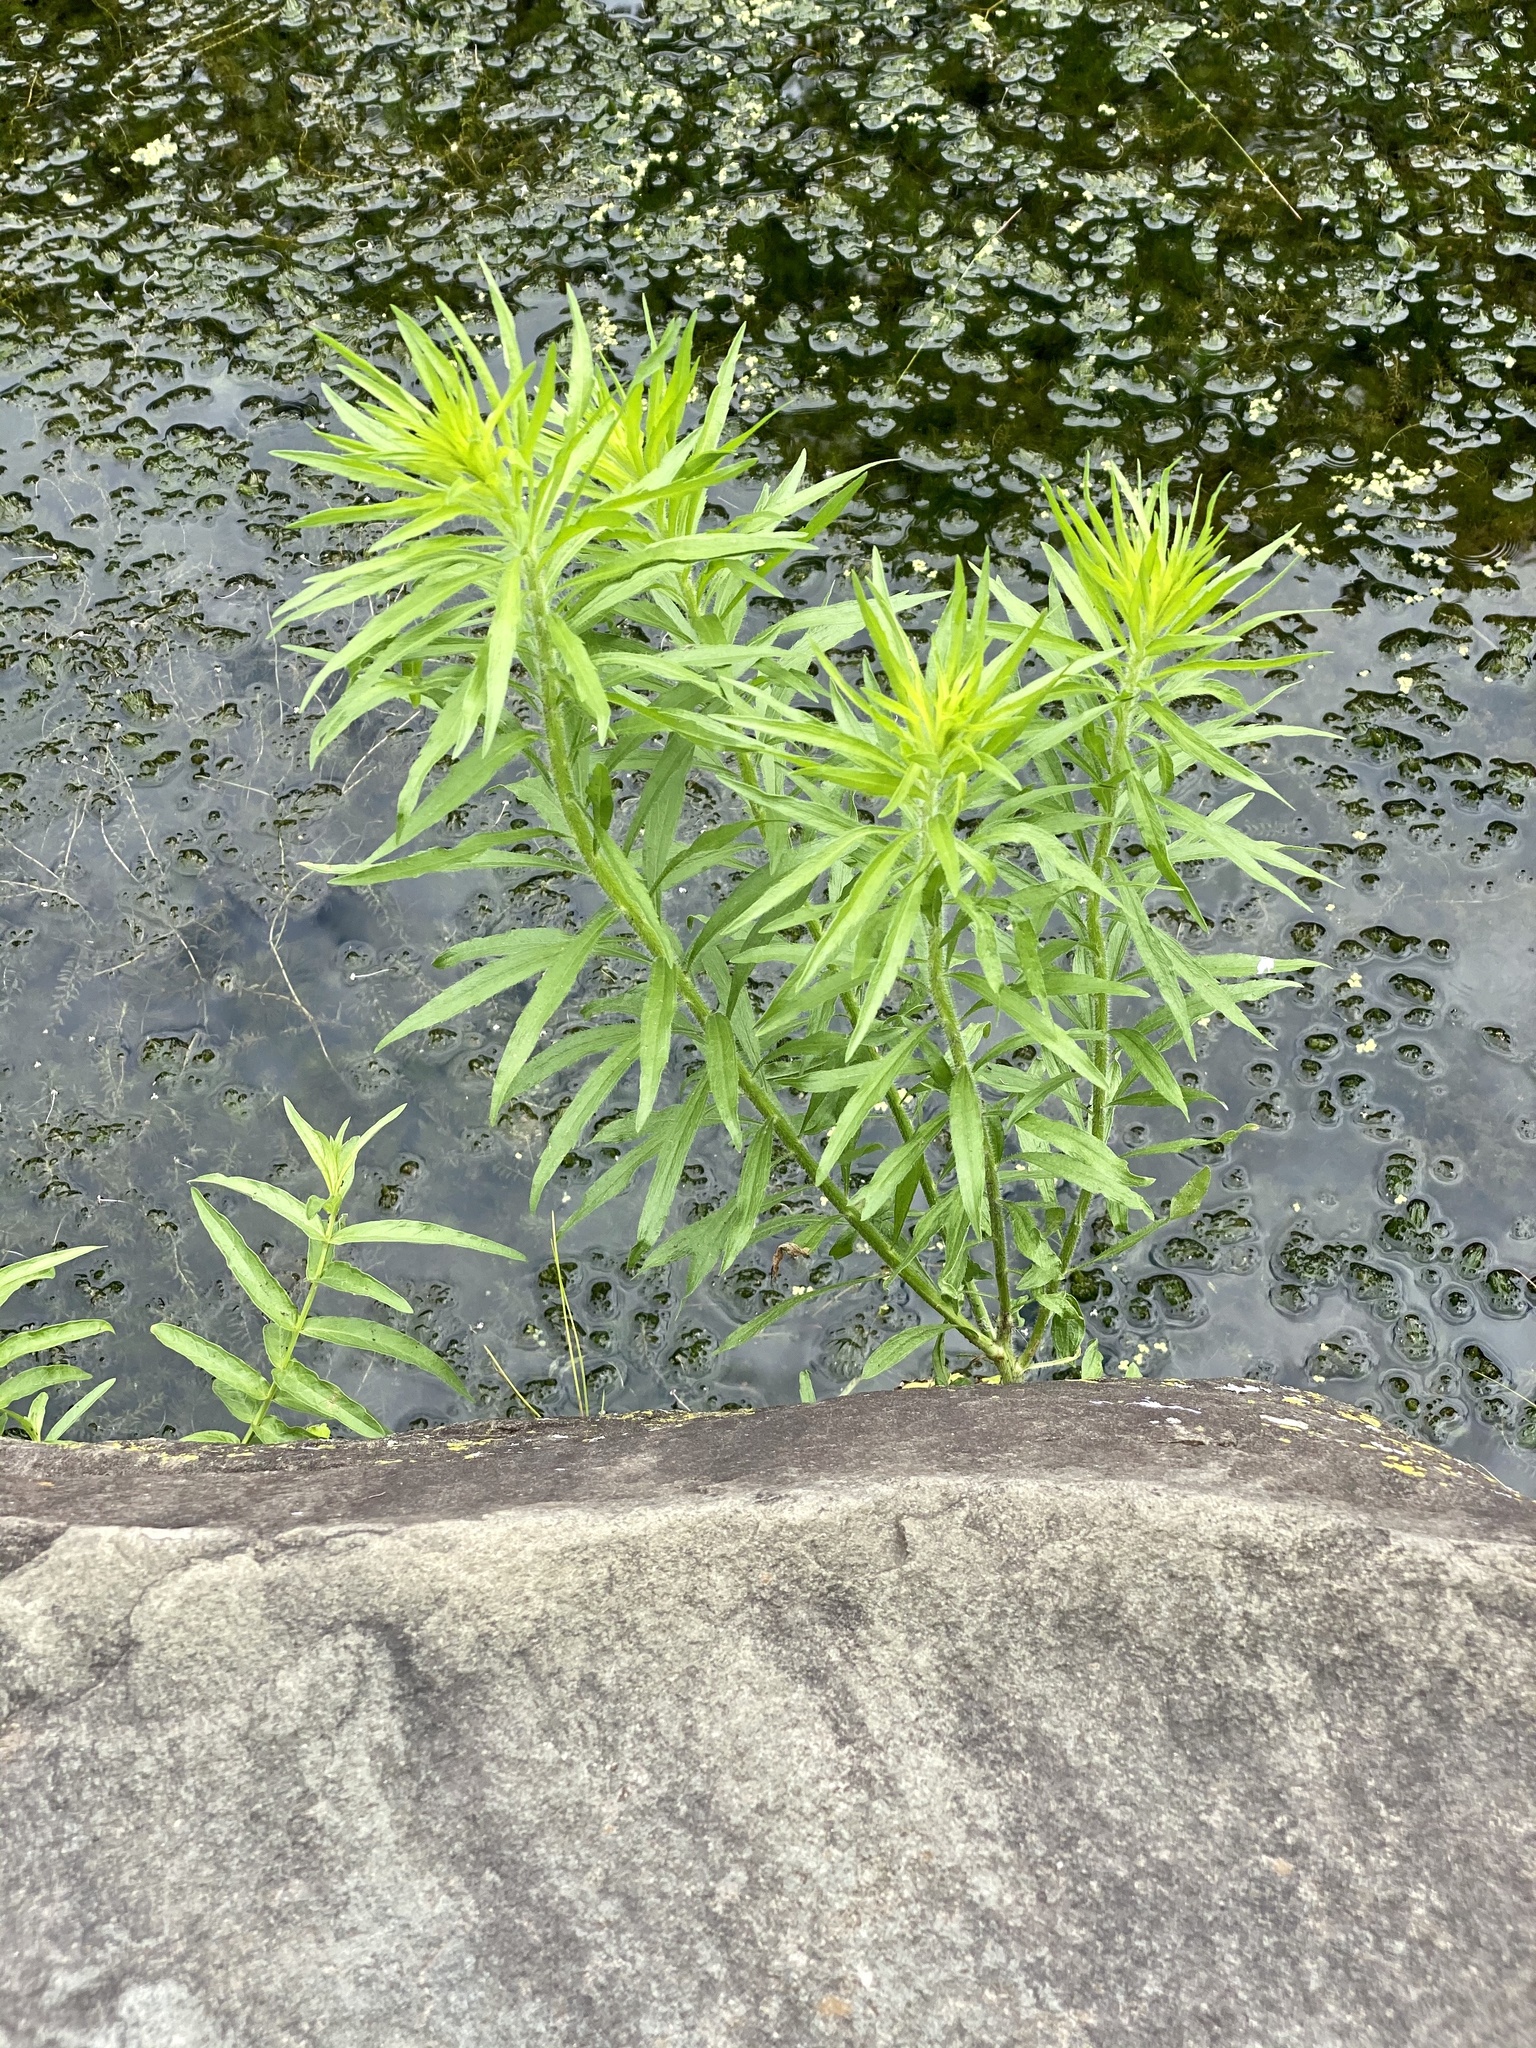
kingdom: Plantae
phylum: Tracheophyta
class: Magnoliopsida
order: Asterales
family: Asteraceae
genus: Erigeron
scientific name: Erigeron canadensis
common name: Canadian fleabane
